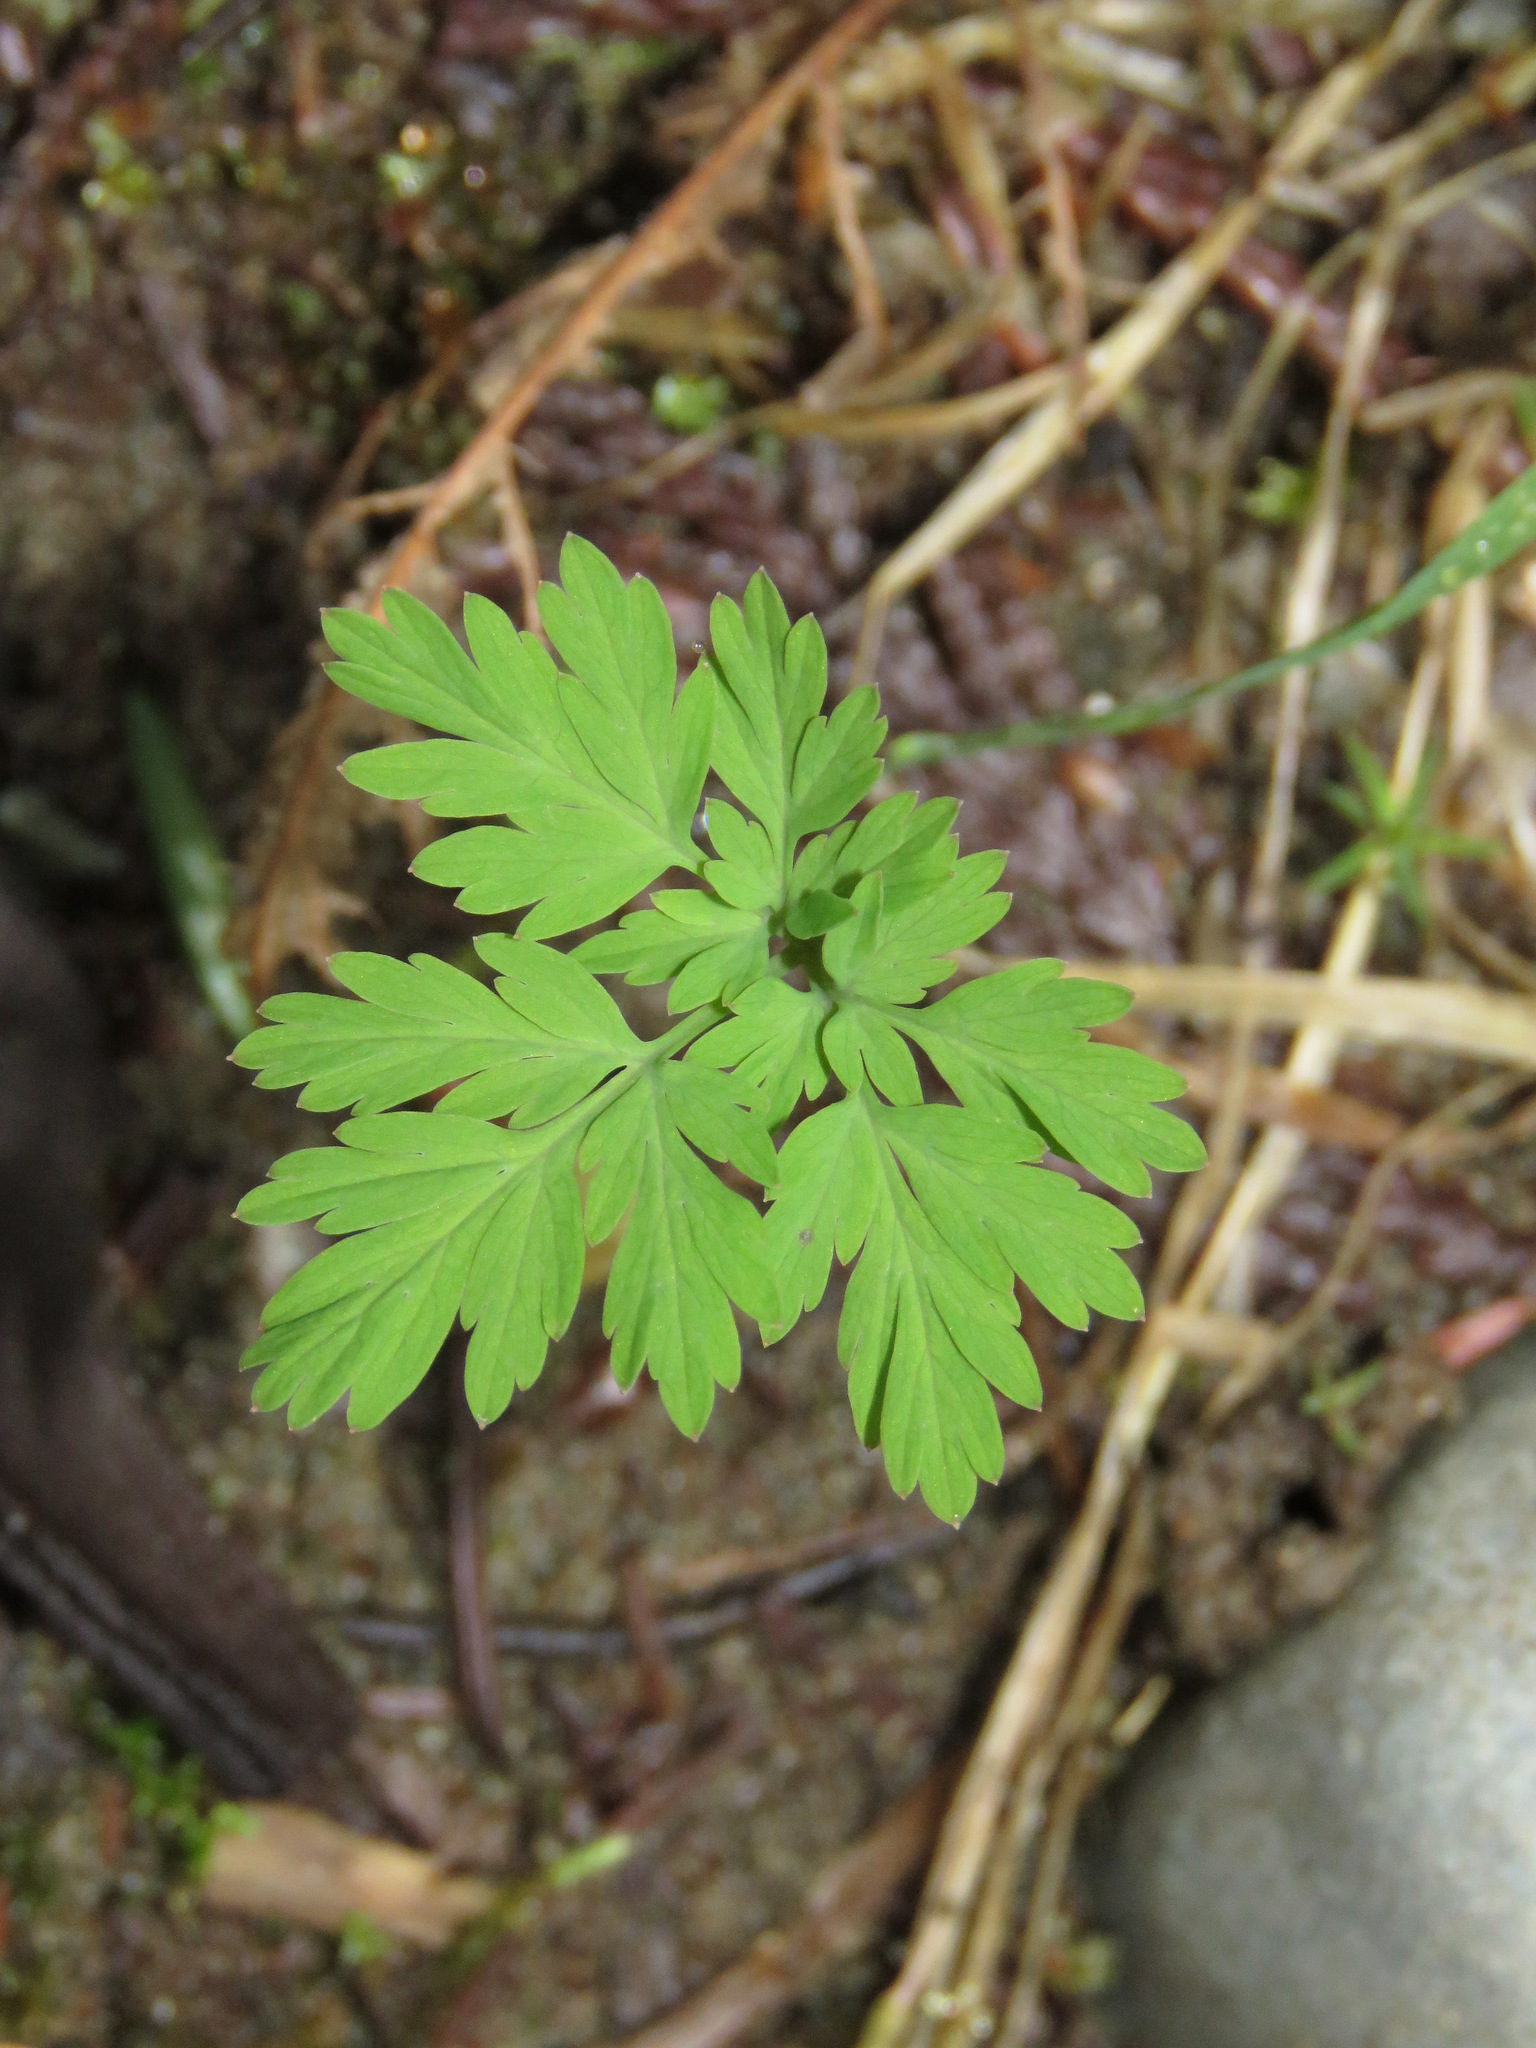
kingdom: Plantae
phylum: Tracheophyta
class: Magnoliopsida
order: Ranunculales
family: Papaveraceae
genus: Dicentra
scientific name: Dicentra formosa
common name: Bleeding-heart
